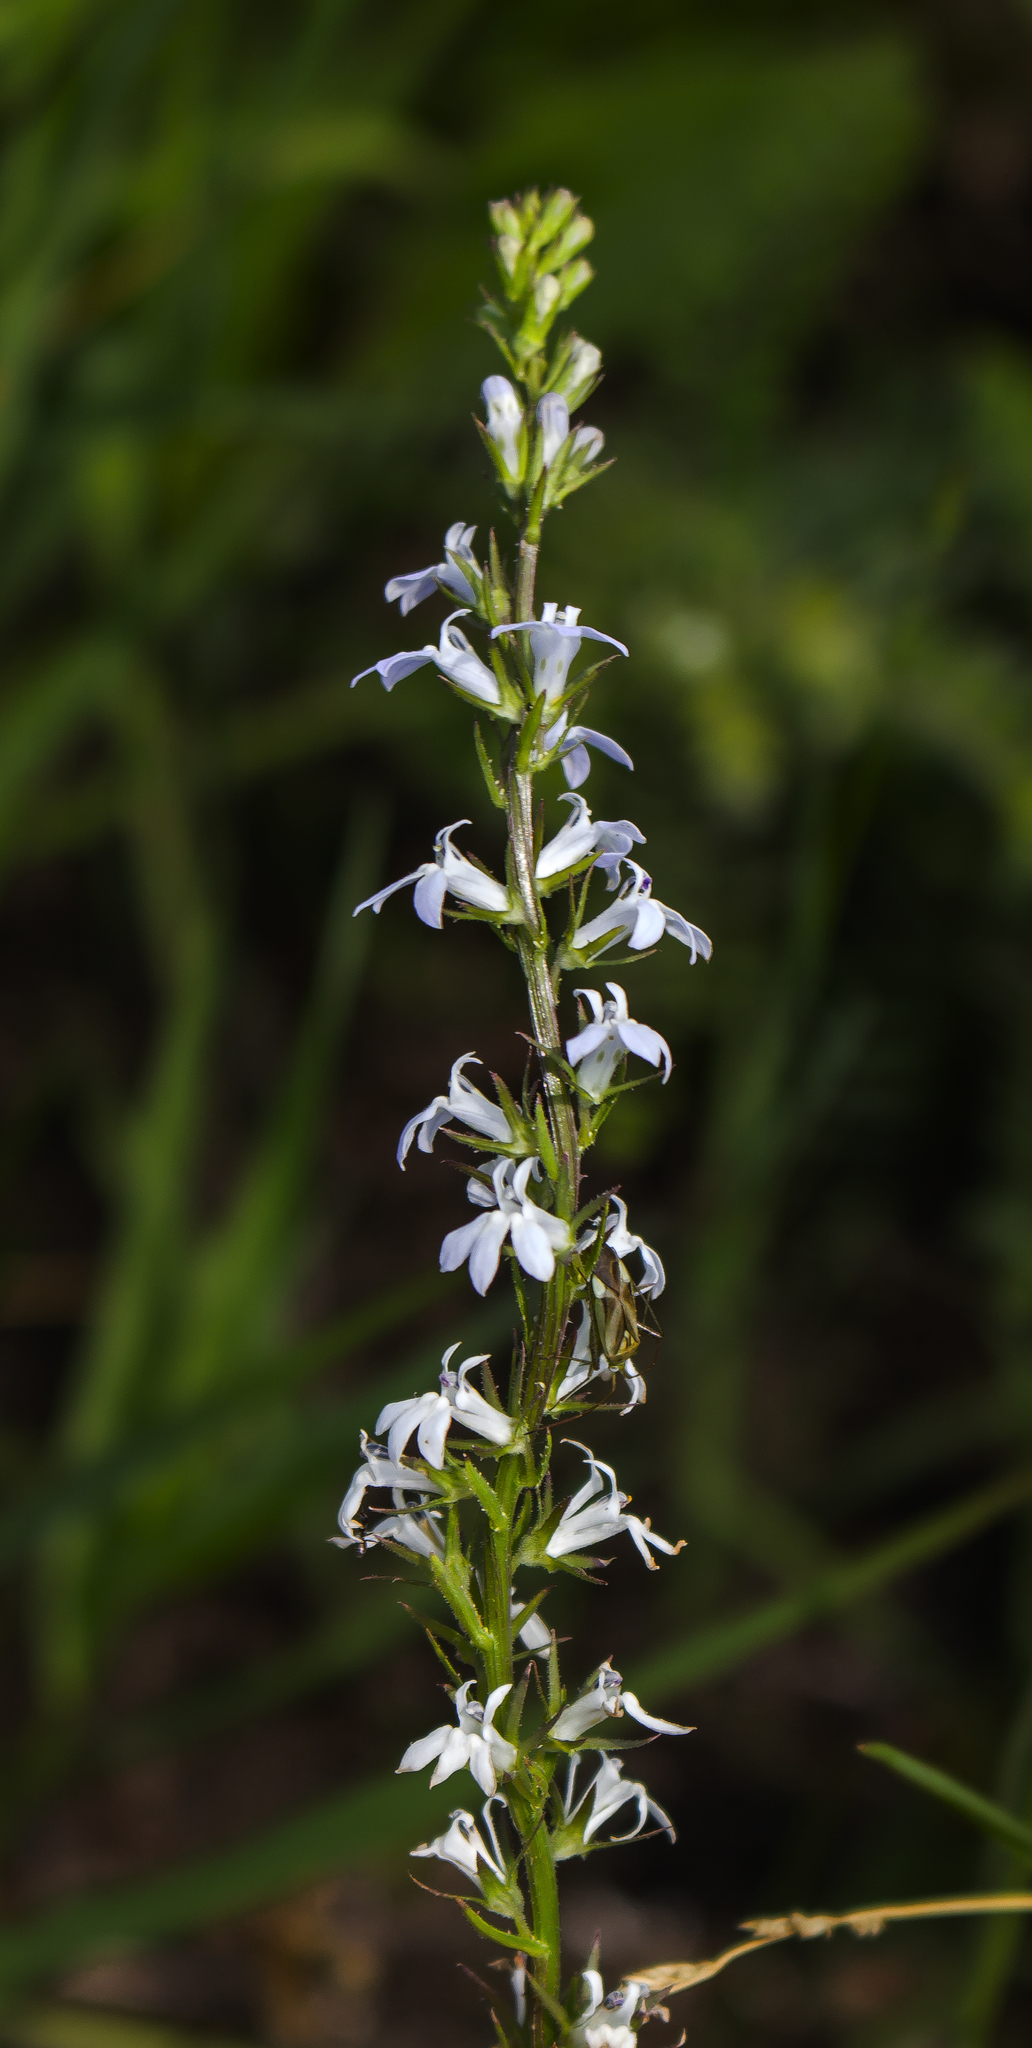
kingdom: Plantae
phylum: Tracheophyta
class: Magnoliopsida
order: Asterales
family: Campanulaceae
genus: Lobelia
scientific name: Lobelia spicata
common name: Pale-spike lobelia
